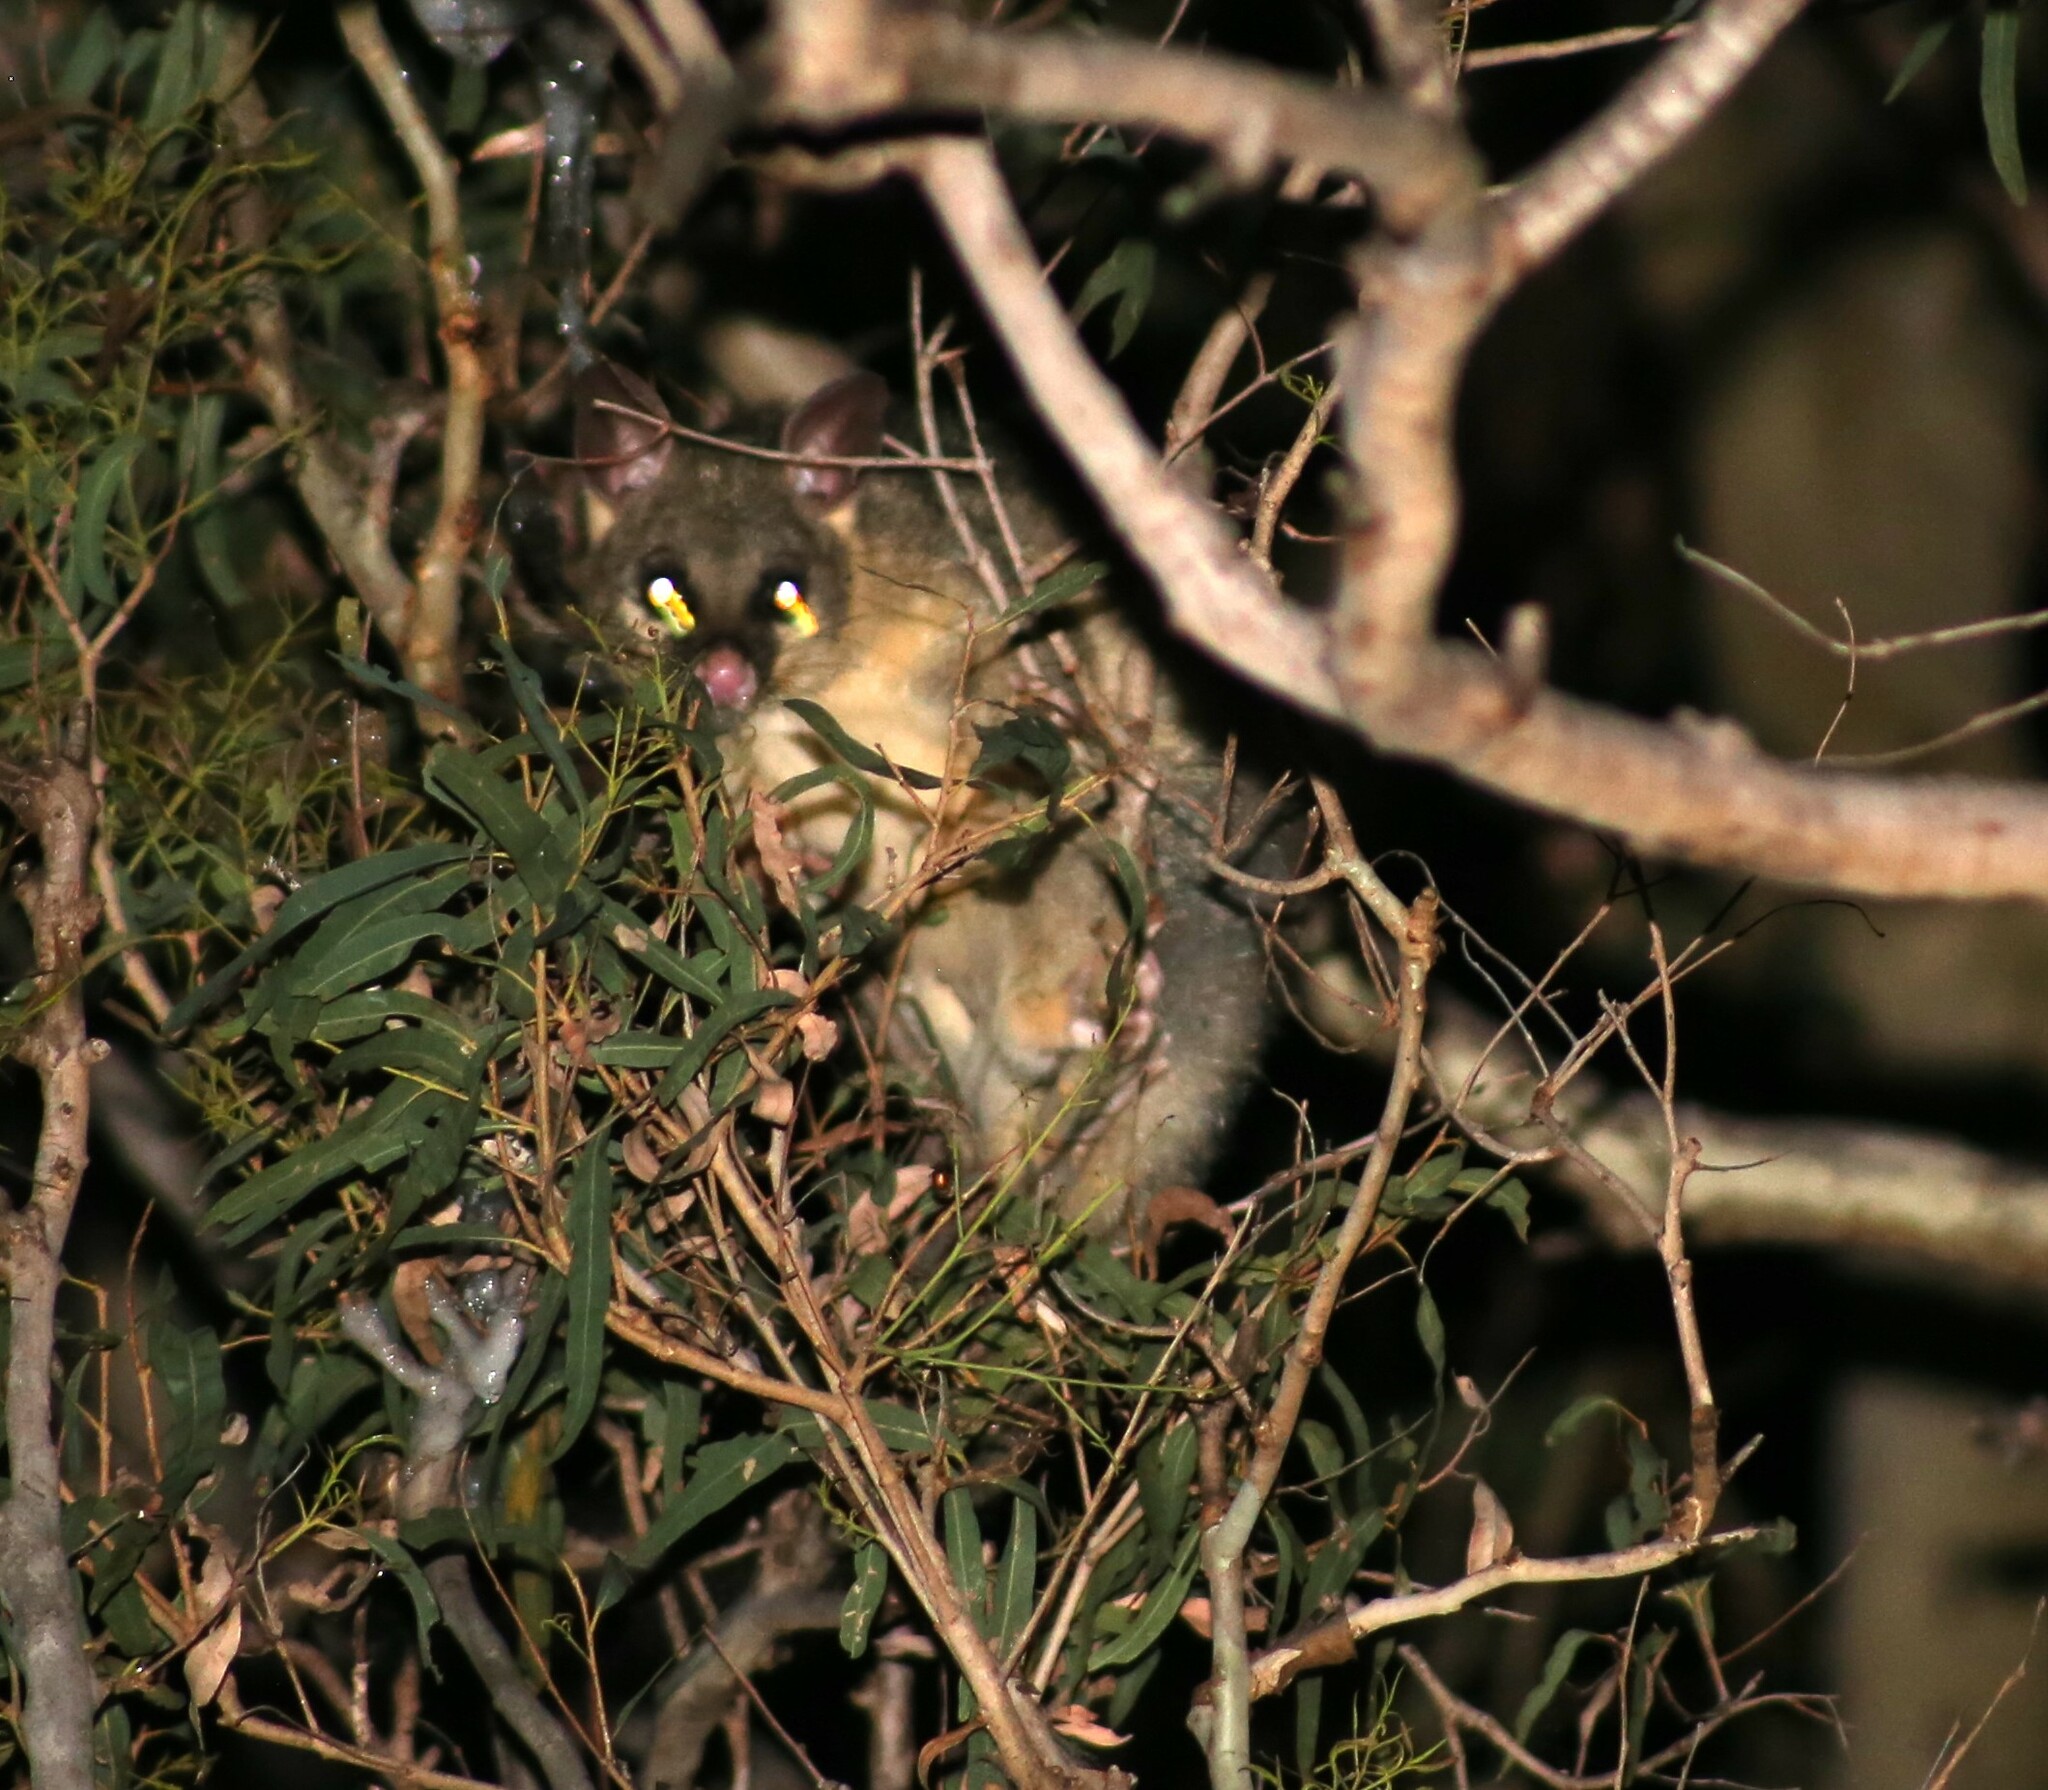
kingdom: Animalia
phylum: Chordata
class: Mammalia
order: Diprotodontia
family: Phalangeridae
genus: Trichosurus
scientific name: Trichosurus vulpecula
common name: Common brushtail
